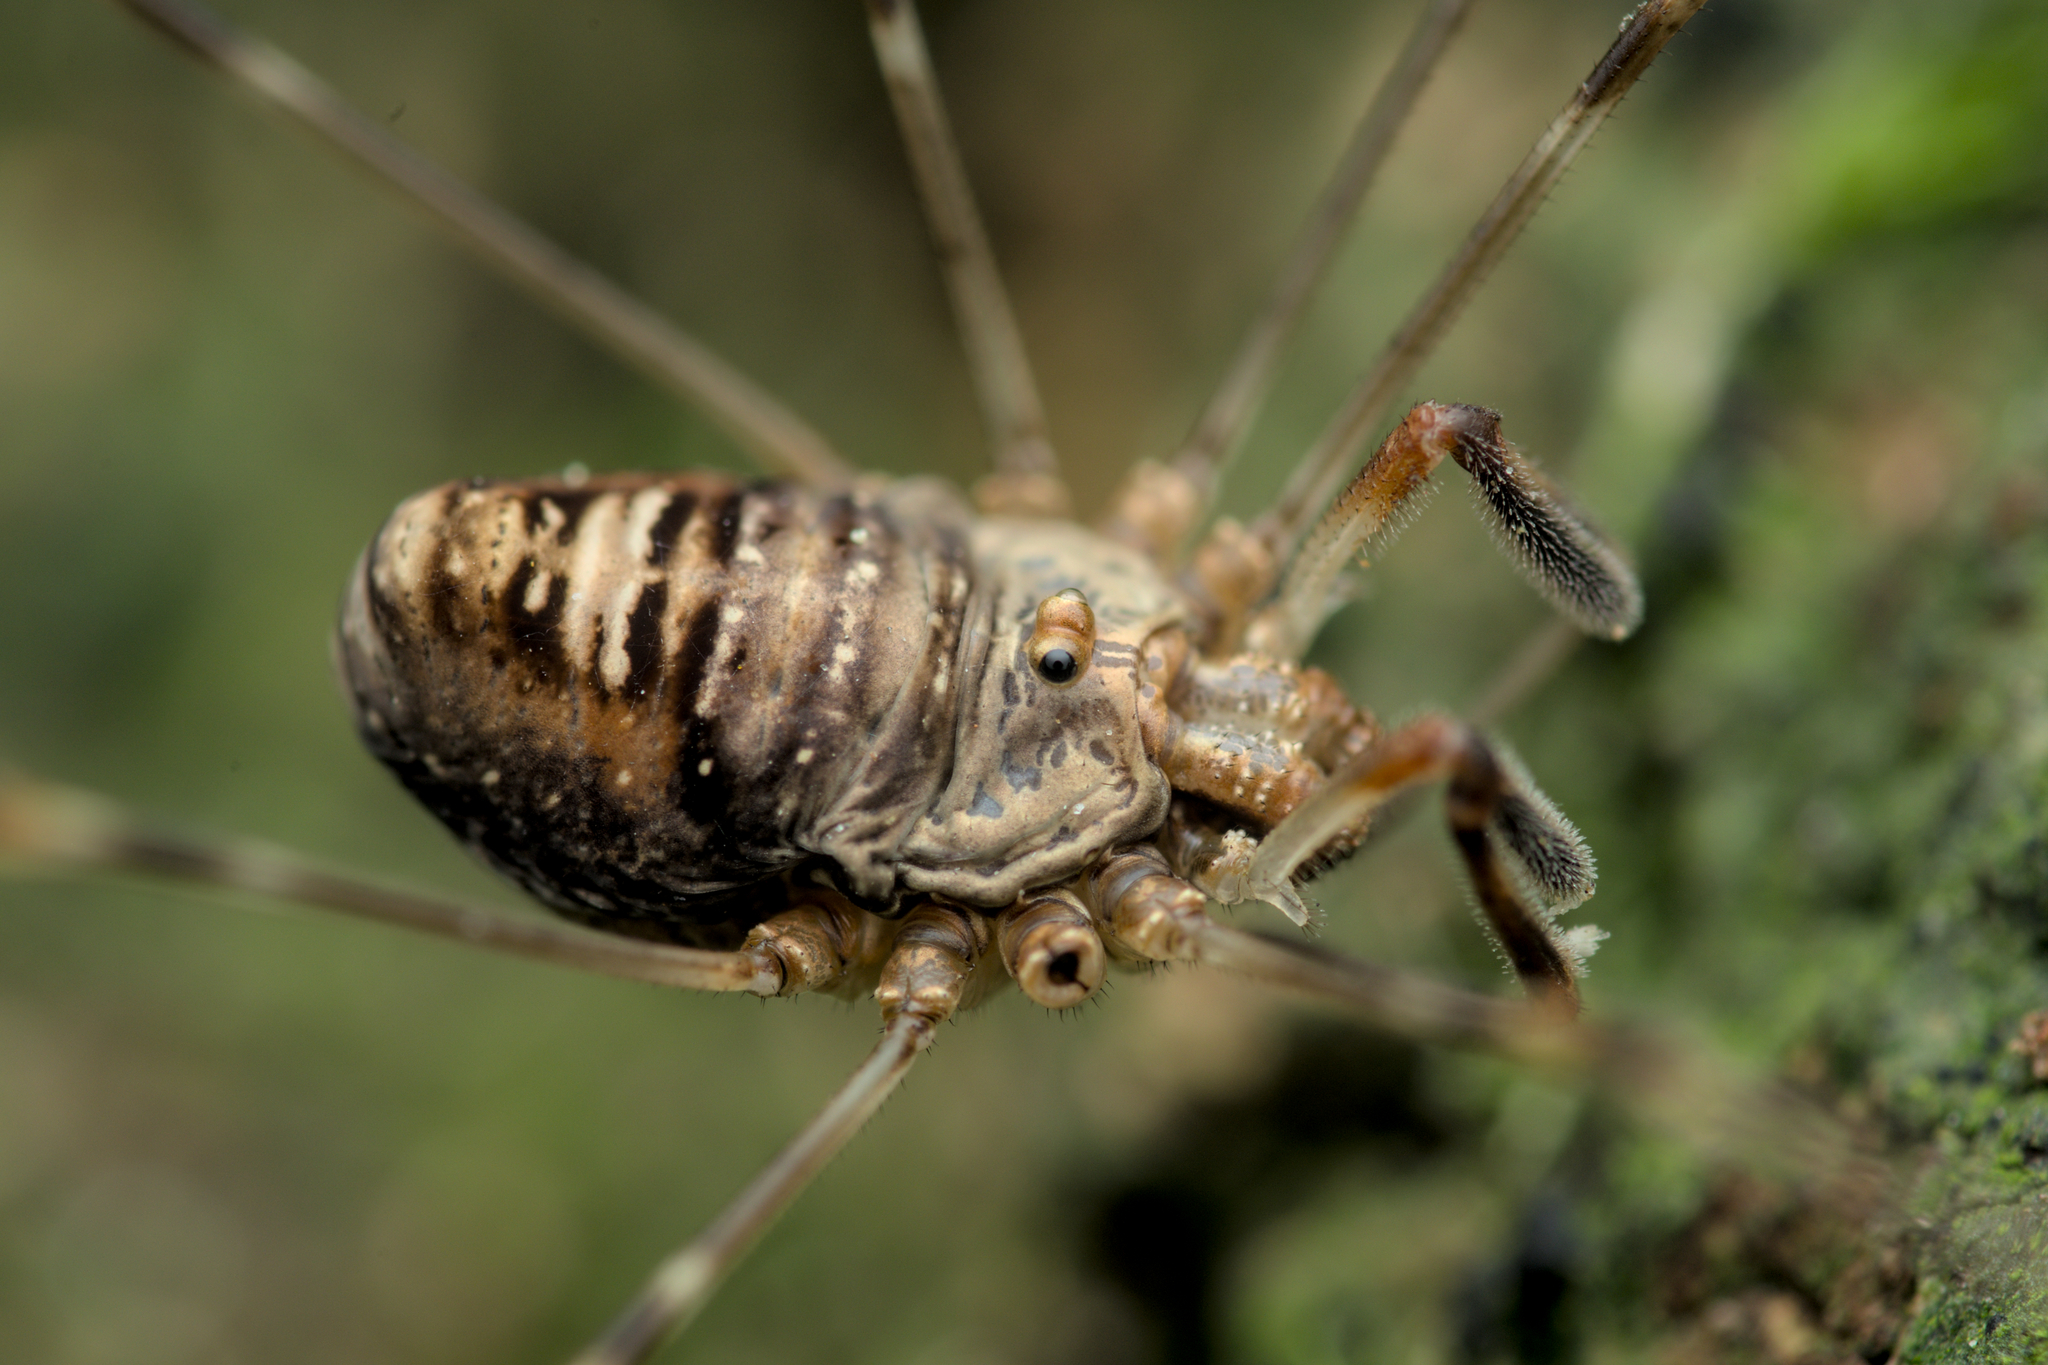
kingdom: Animalia
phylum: Arthropoda
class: Arachnida
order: Opiliones
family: Phalangiidae
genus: Dicranopalpus
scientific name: Dicranopalpus ramosus
